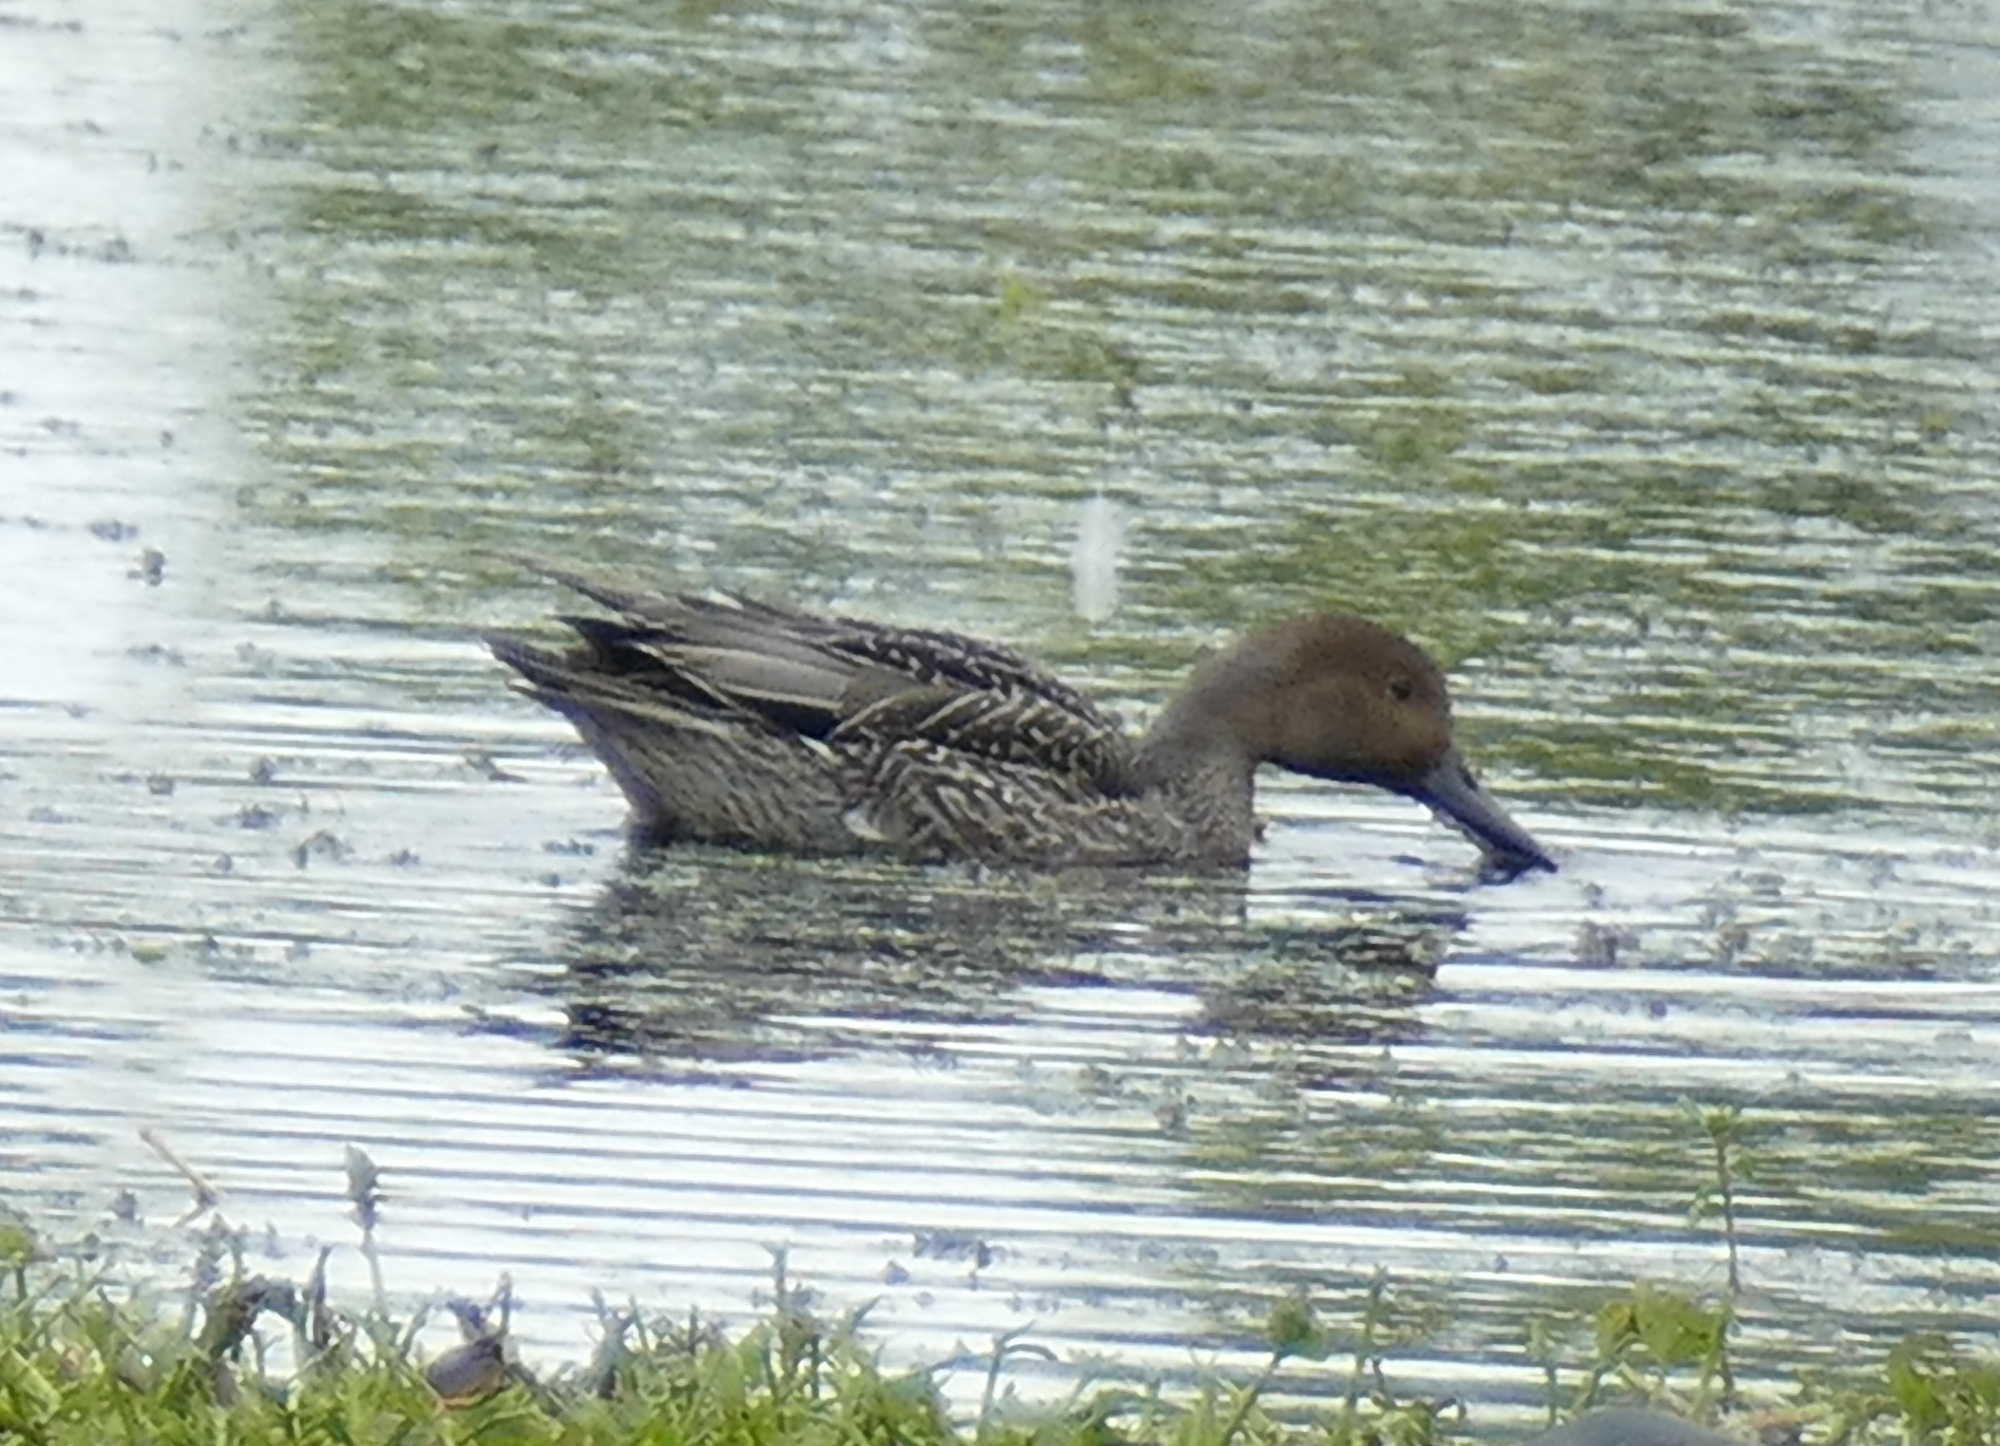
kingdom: Animalia
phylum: Chordata
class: Aves
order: Anseriformes
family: Anatidae
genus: Anas
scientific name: Anas acuta
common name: Northern pintail
